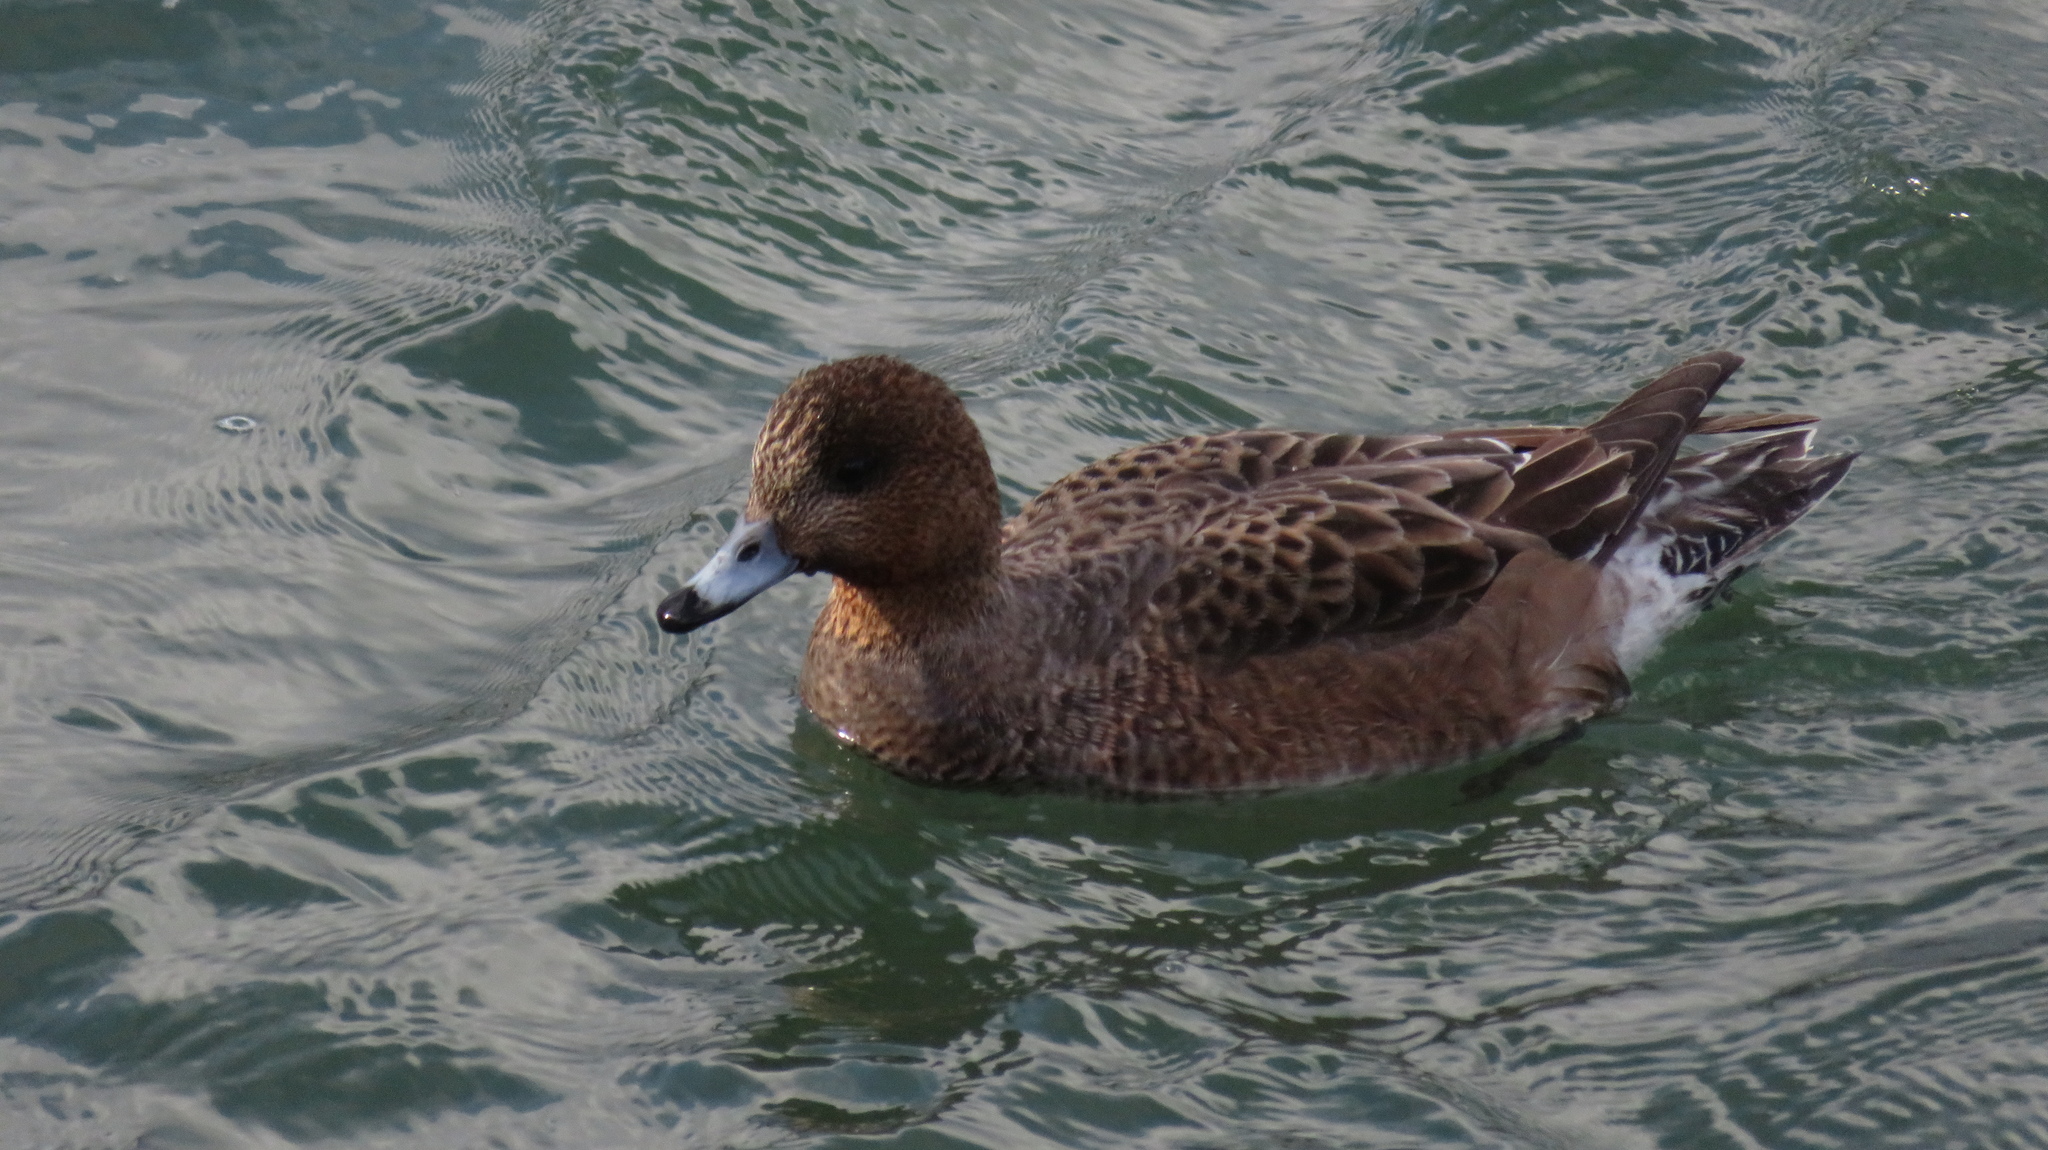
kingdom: Animalia
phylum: Chordata
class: Aves
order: Anseriformes
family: Anatidae
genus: Mareca
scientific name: Mareca penelope
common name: Eurasian wigeon
